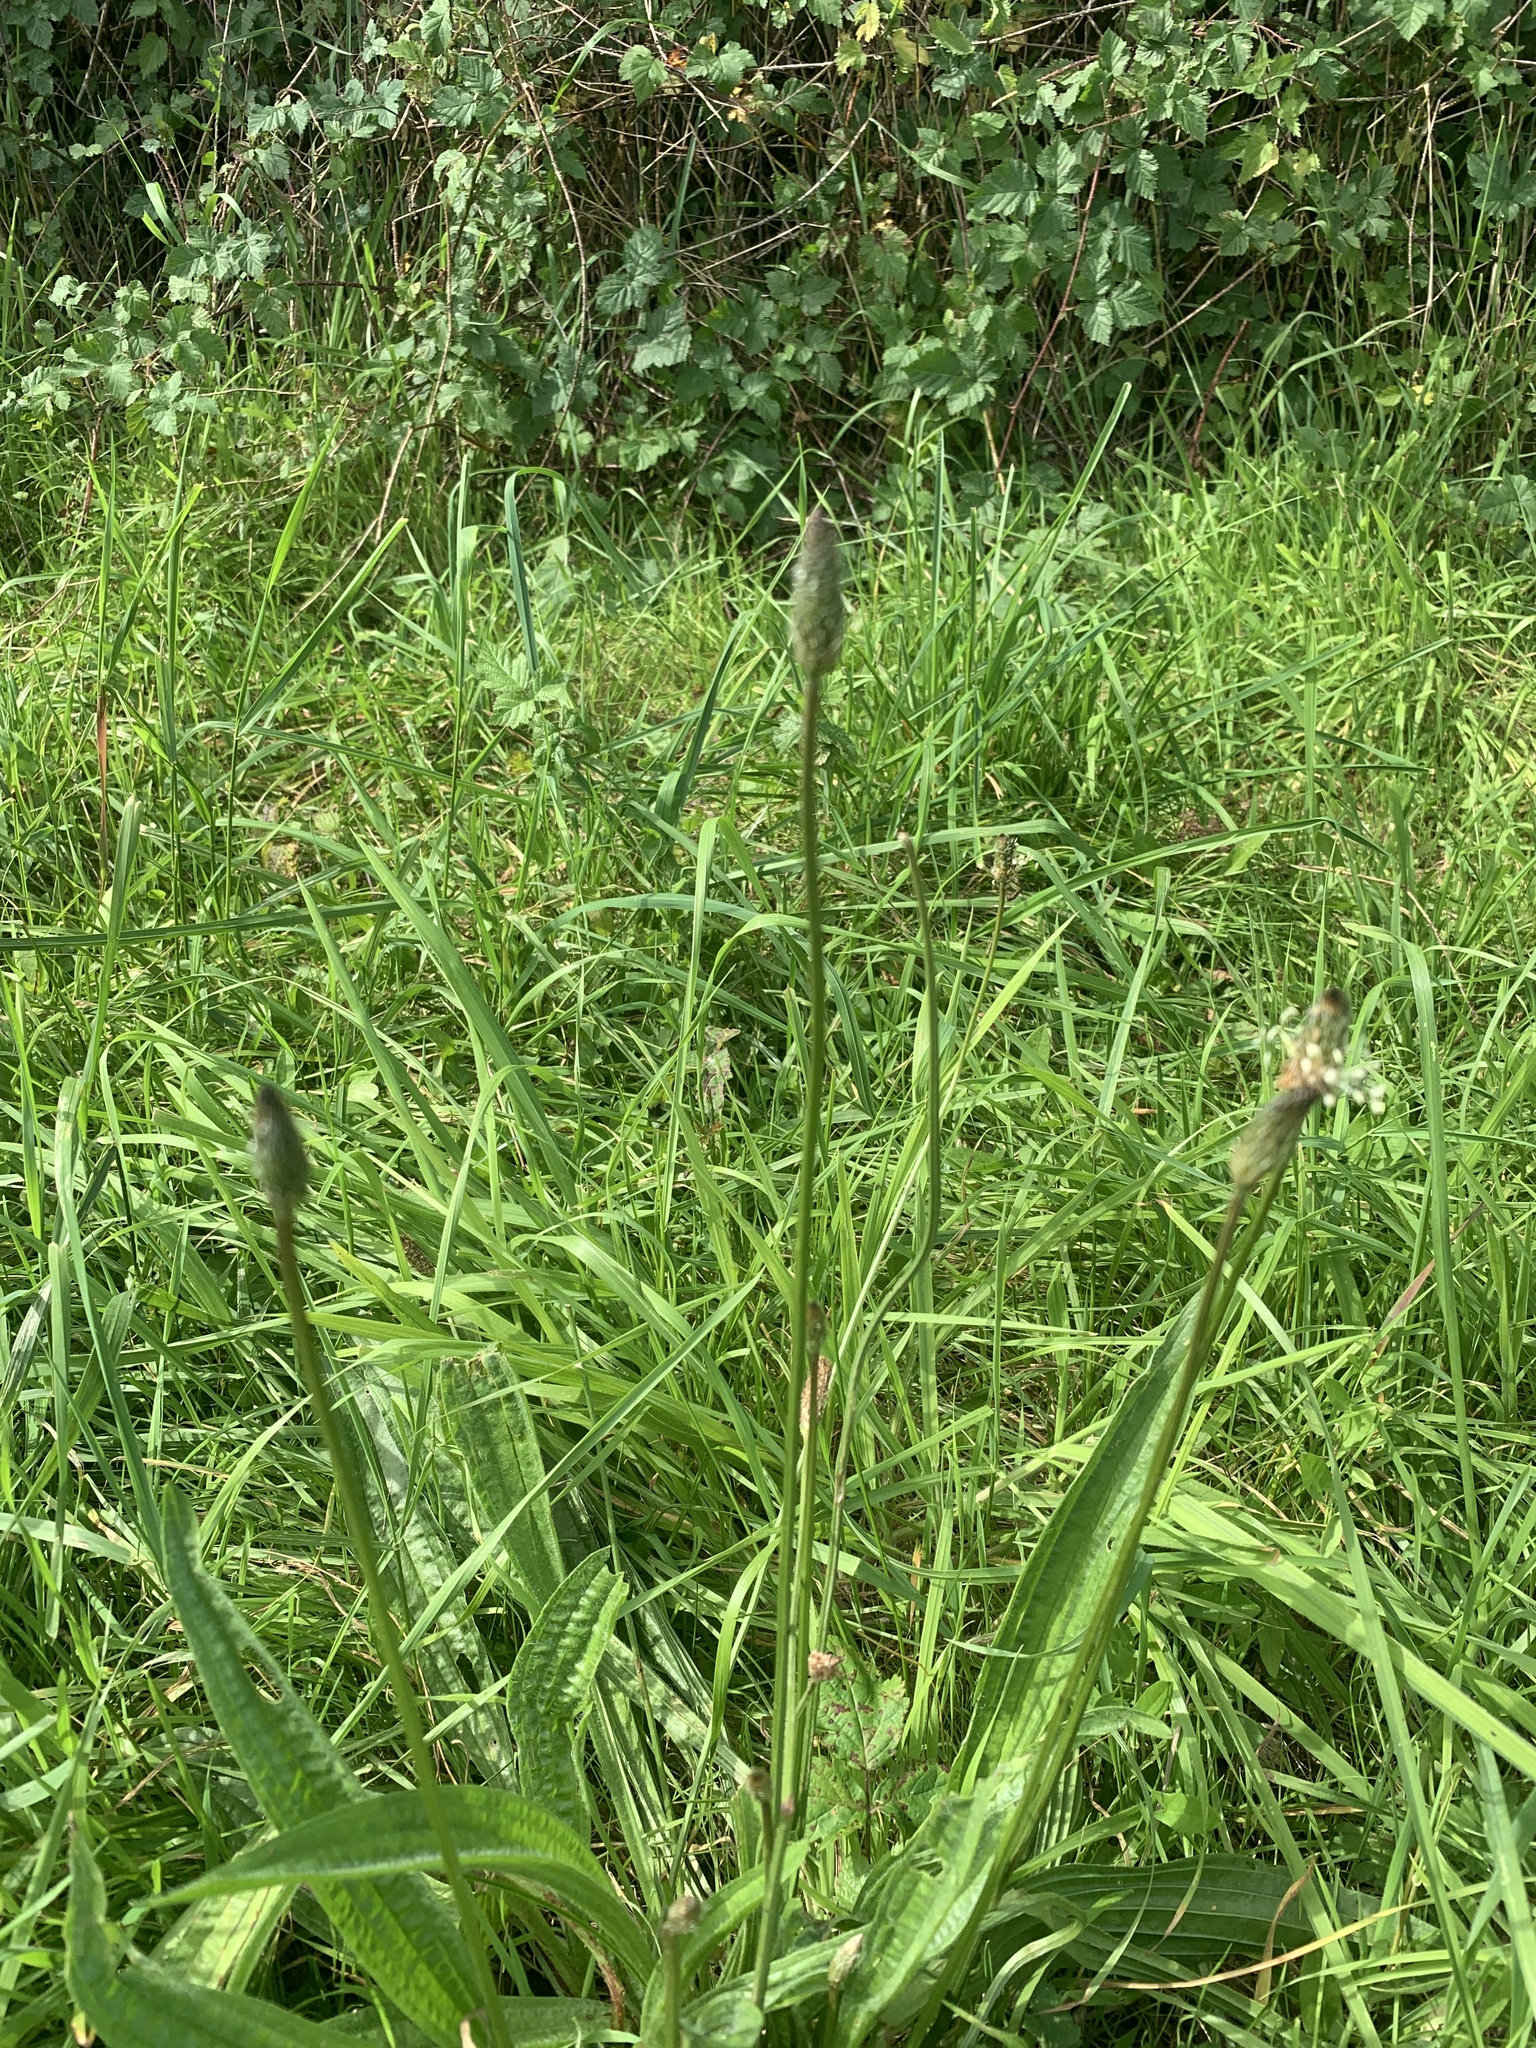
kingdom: Plantae
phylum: Tracheophyta
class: Magnoliopsida
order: Lamiales
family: Plantaginaceae
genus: Plantago
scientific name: Plantago lanceolata
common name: Ribwort plantain
